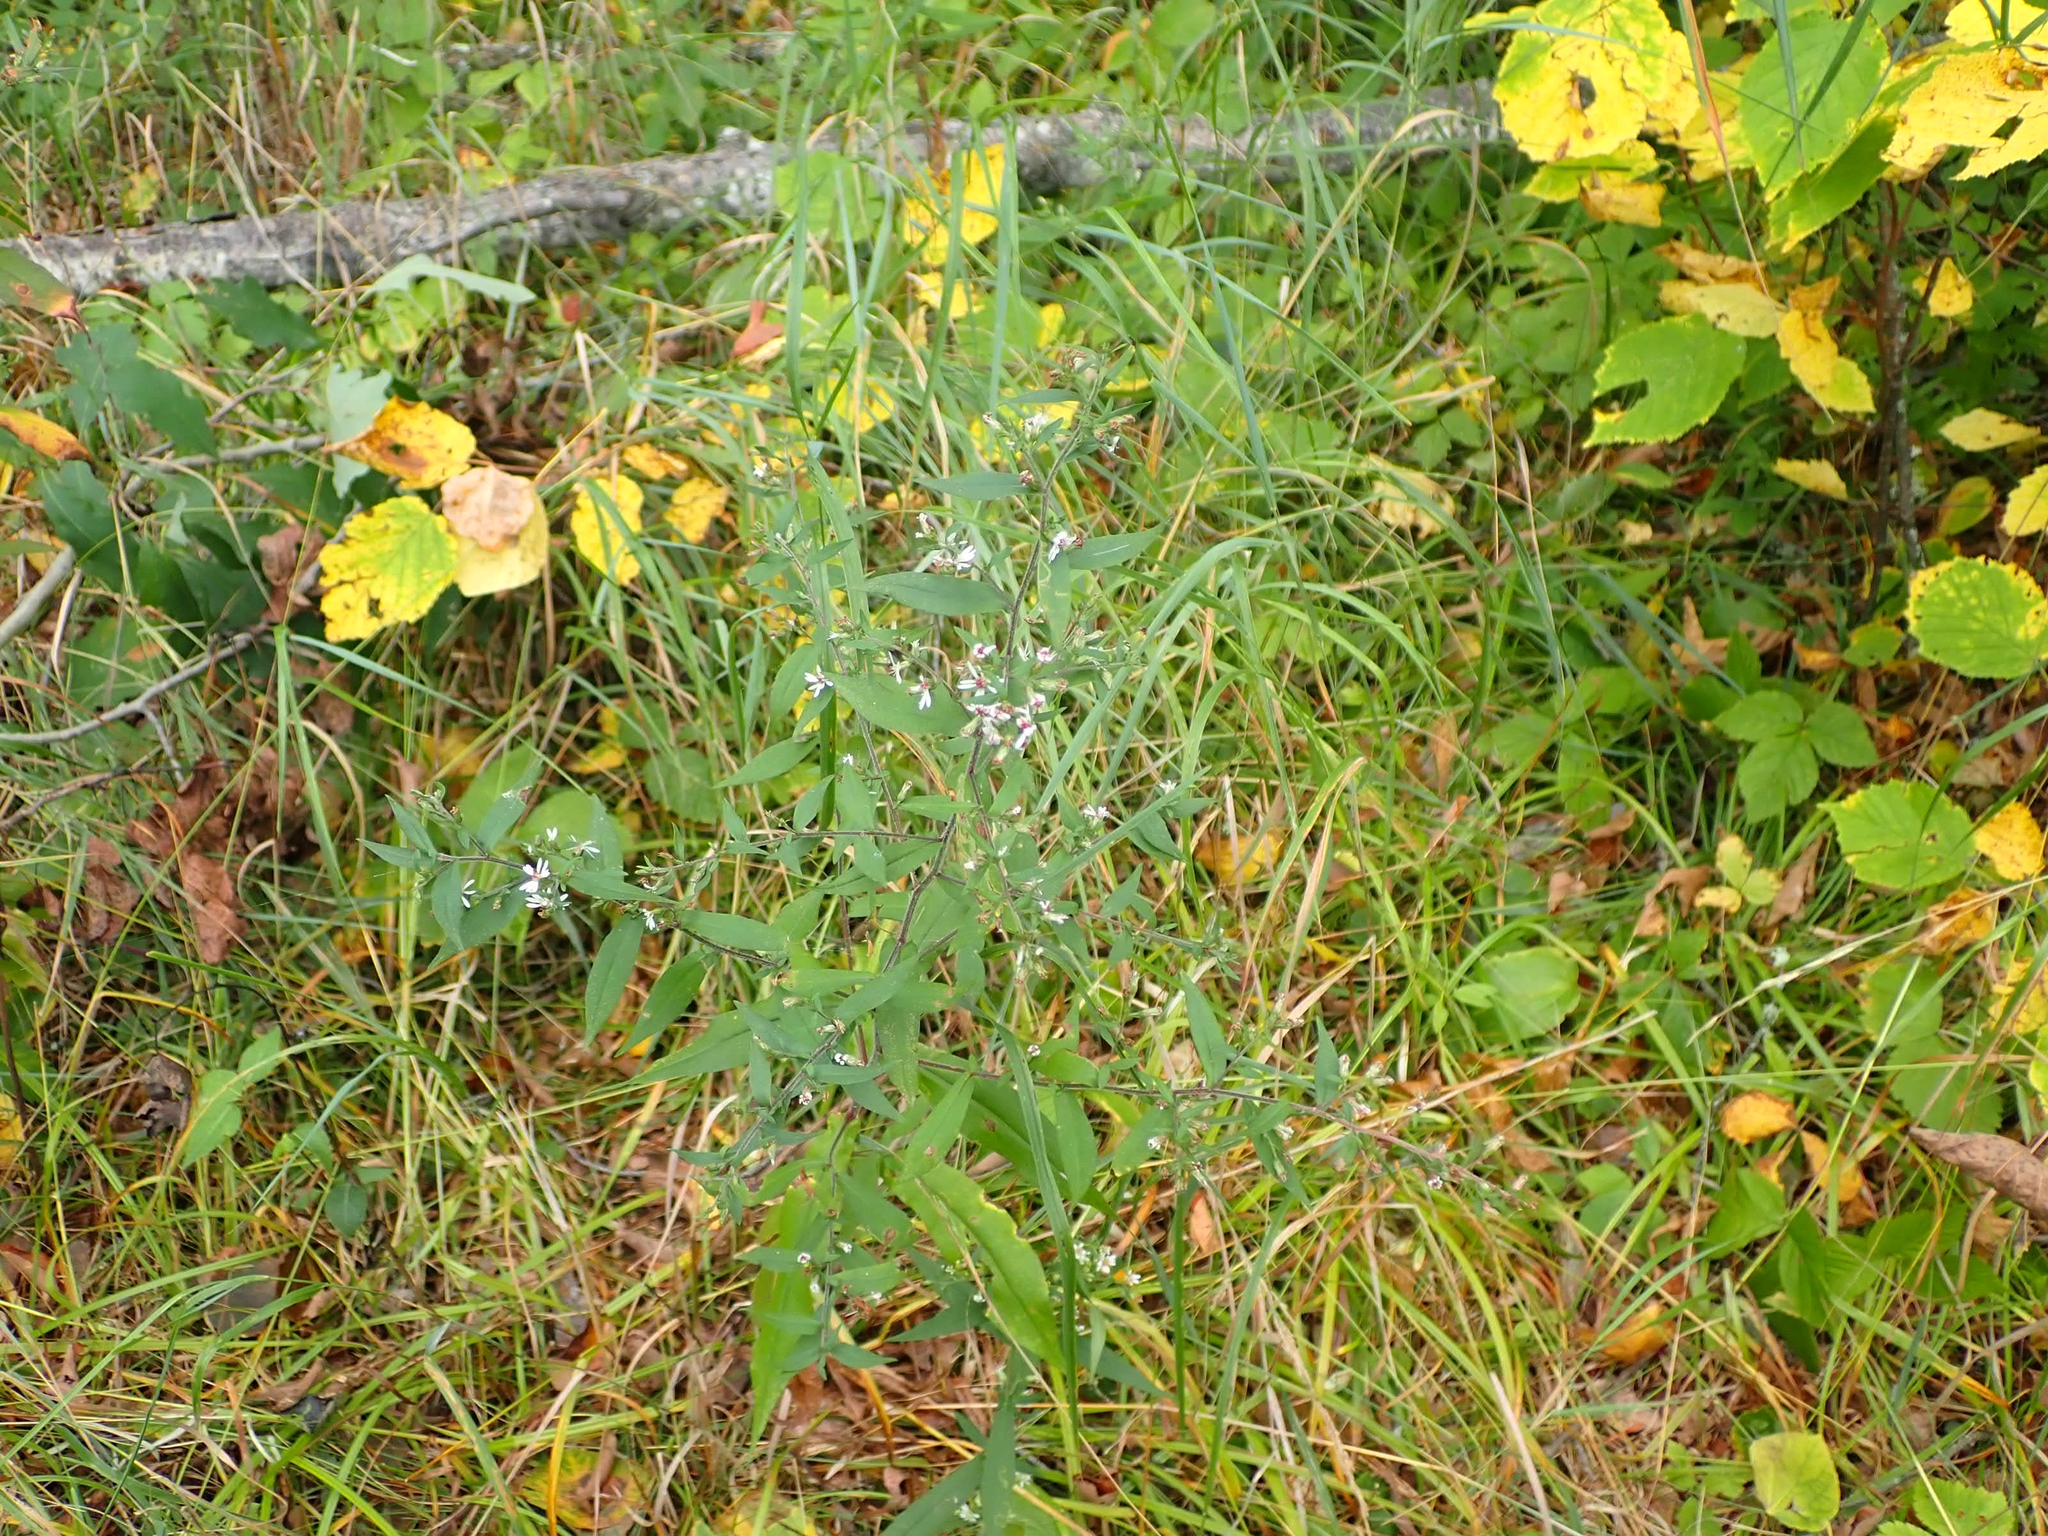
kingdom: Plantae
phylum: Tracheophyta
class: Magnoliopsida
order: Asterales
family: Asteraceae
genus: Symphyotrichum
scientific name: Symphyotrichum lateriflorum
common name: Calico aster
